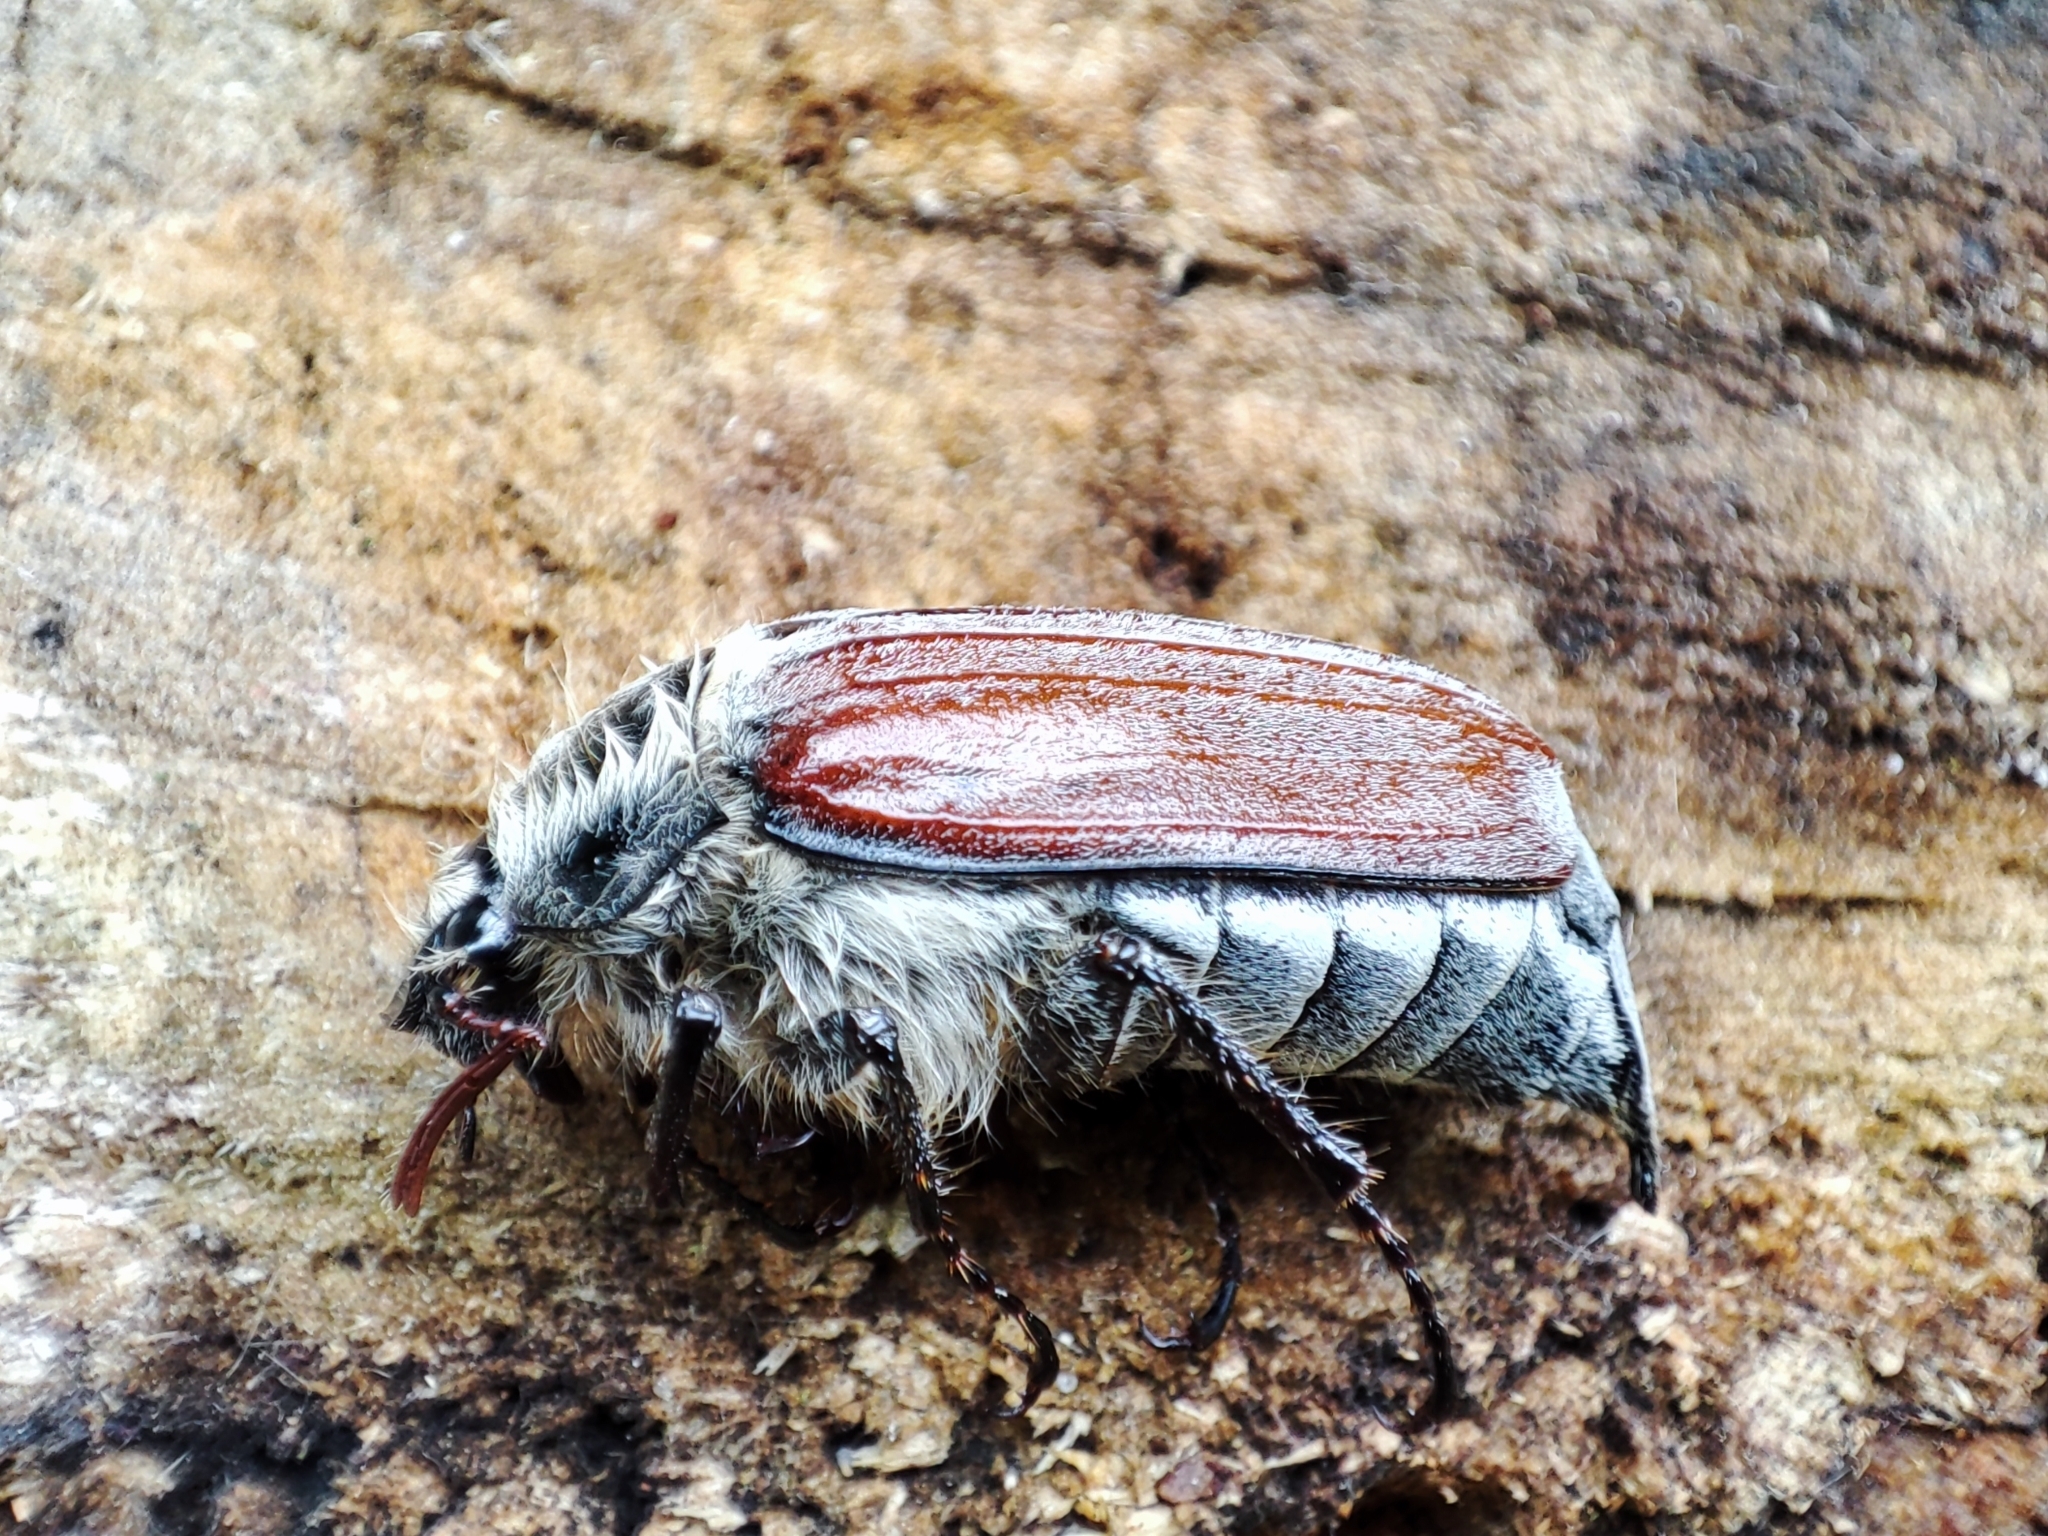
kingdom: Animalia
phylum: Arthropoda
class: Insecta
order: Coleoptera
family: Scarabaeidae
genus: Melolontha
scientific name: Melolontha hippocastani
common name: Chestnut cockchafer
